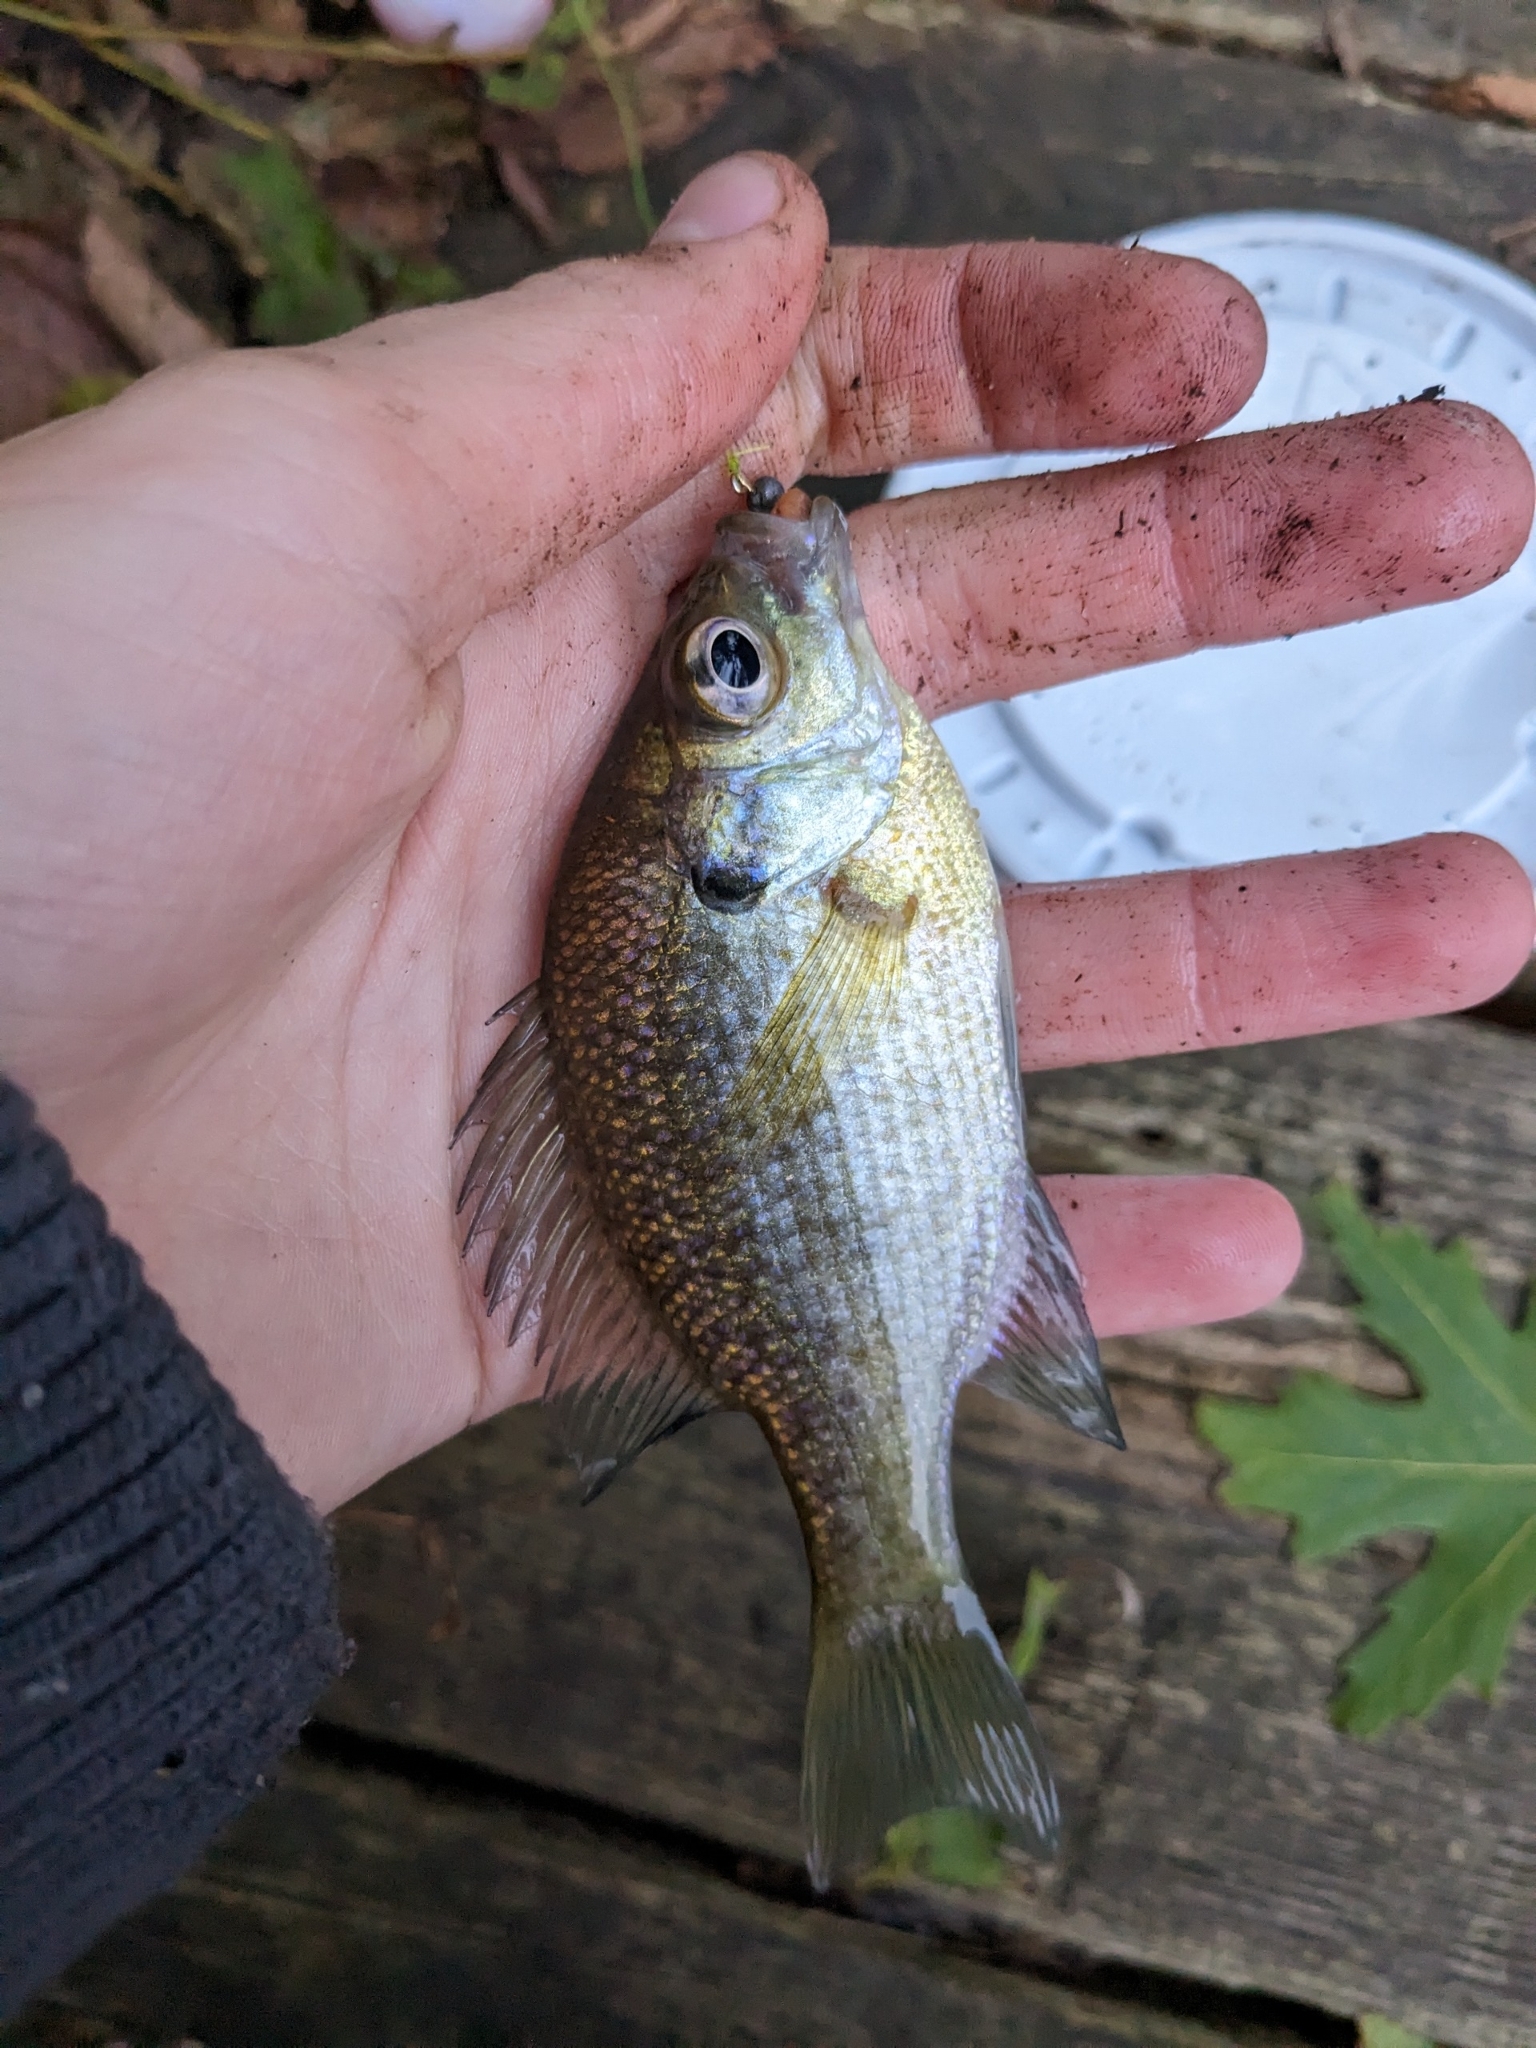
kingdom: Animalia
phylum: Chordata
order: Perciformes
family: Centrarchidae
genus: Lepomis
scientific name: Lepomis macrochirus
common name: Bluegill
